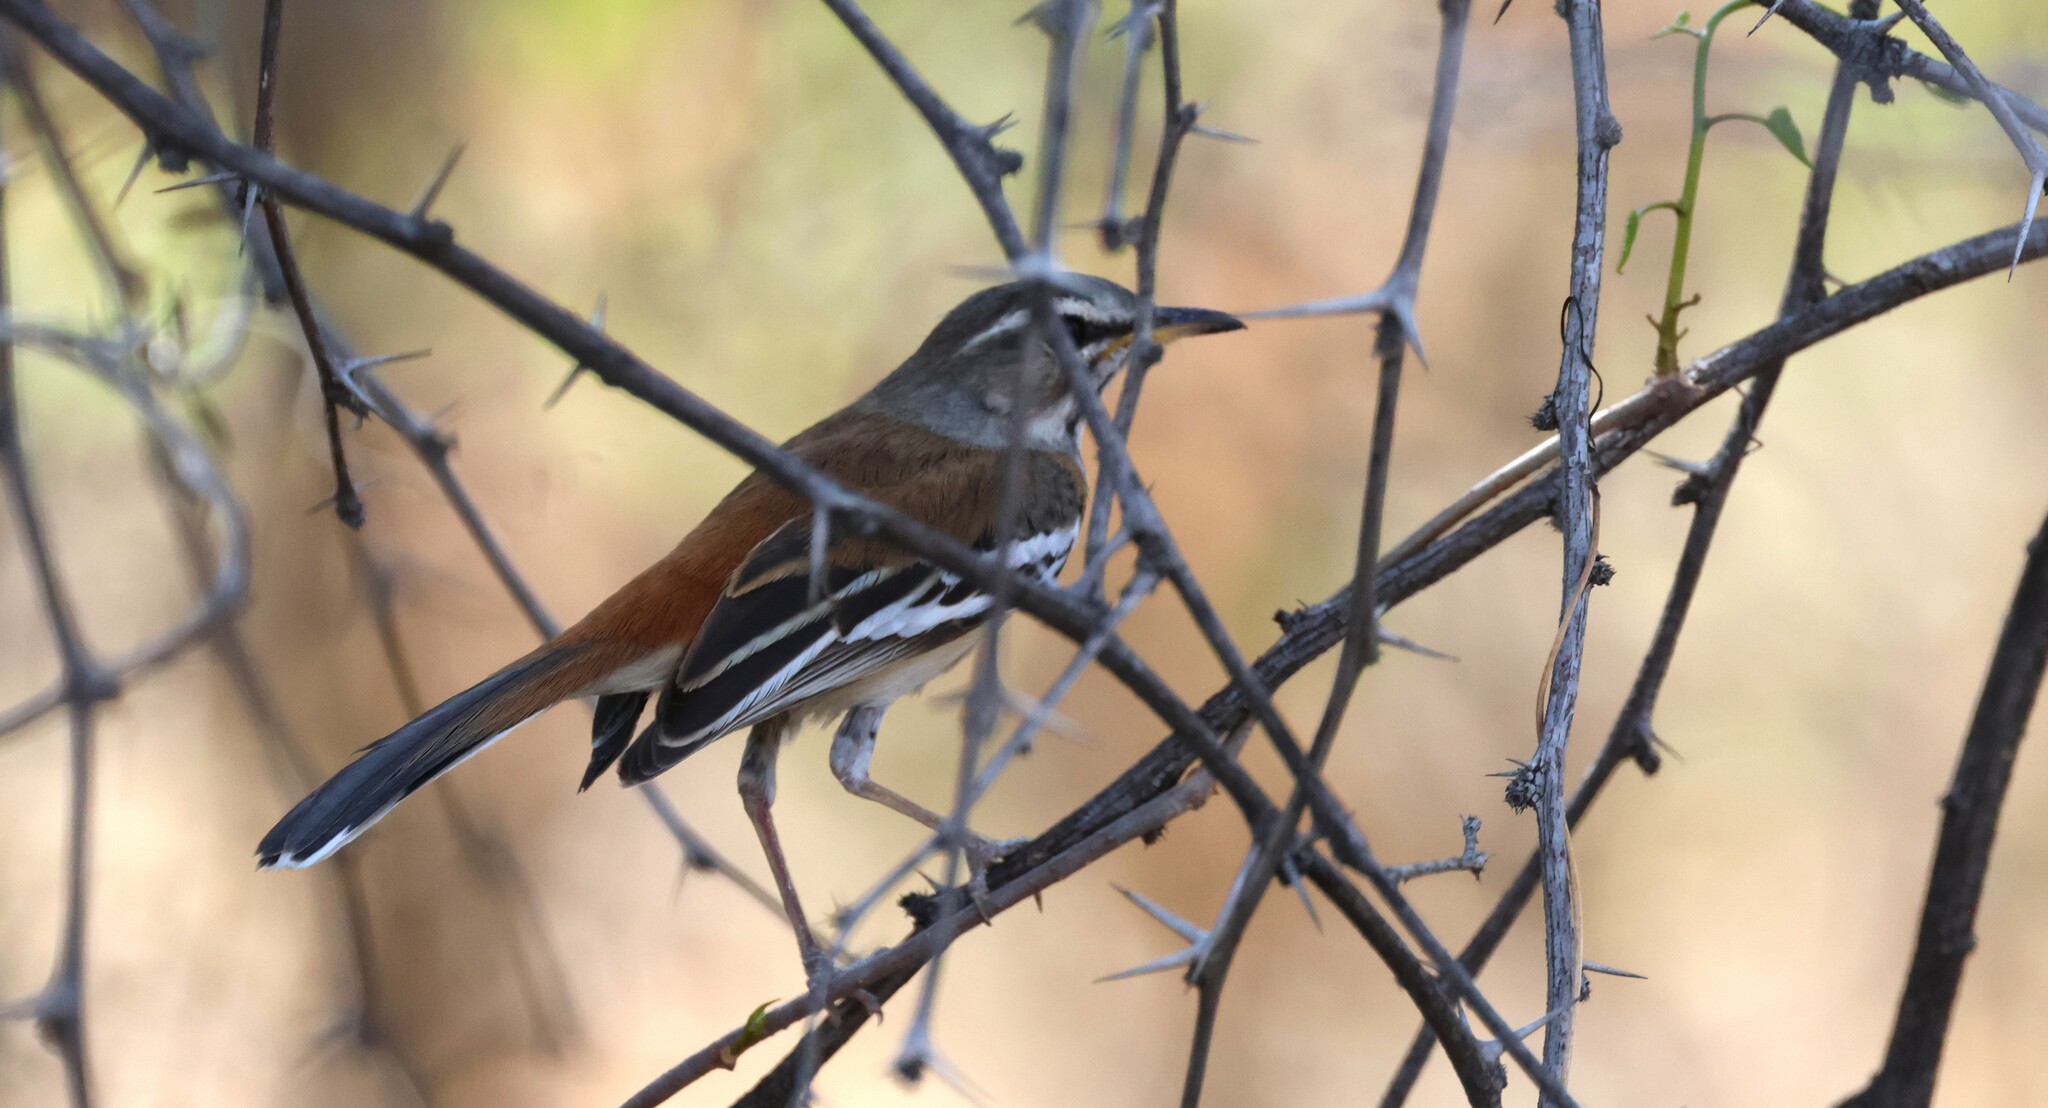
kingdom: Animalia
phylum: Chordata
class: Aves
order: Passeriformes
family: Muscicapidae
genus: Erythropygia
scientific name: Erythropygia leucophrys
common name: White-browed scrub robin
